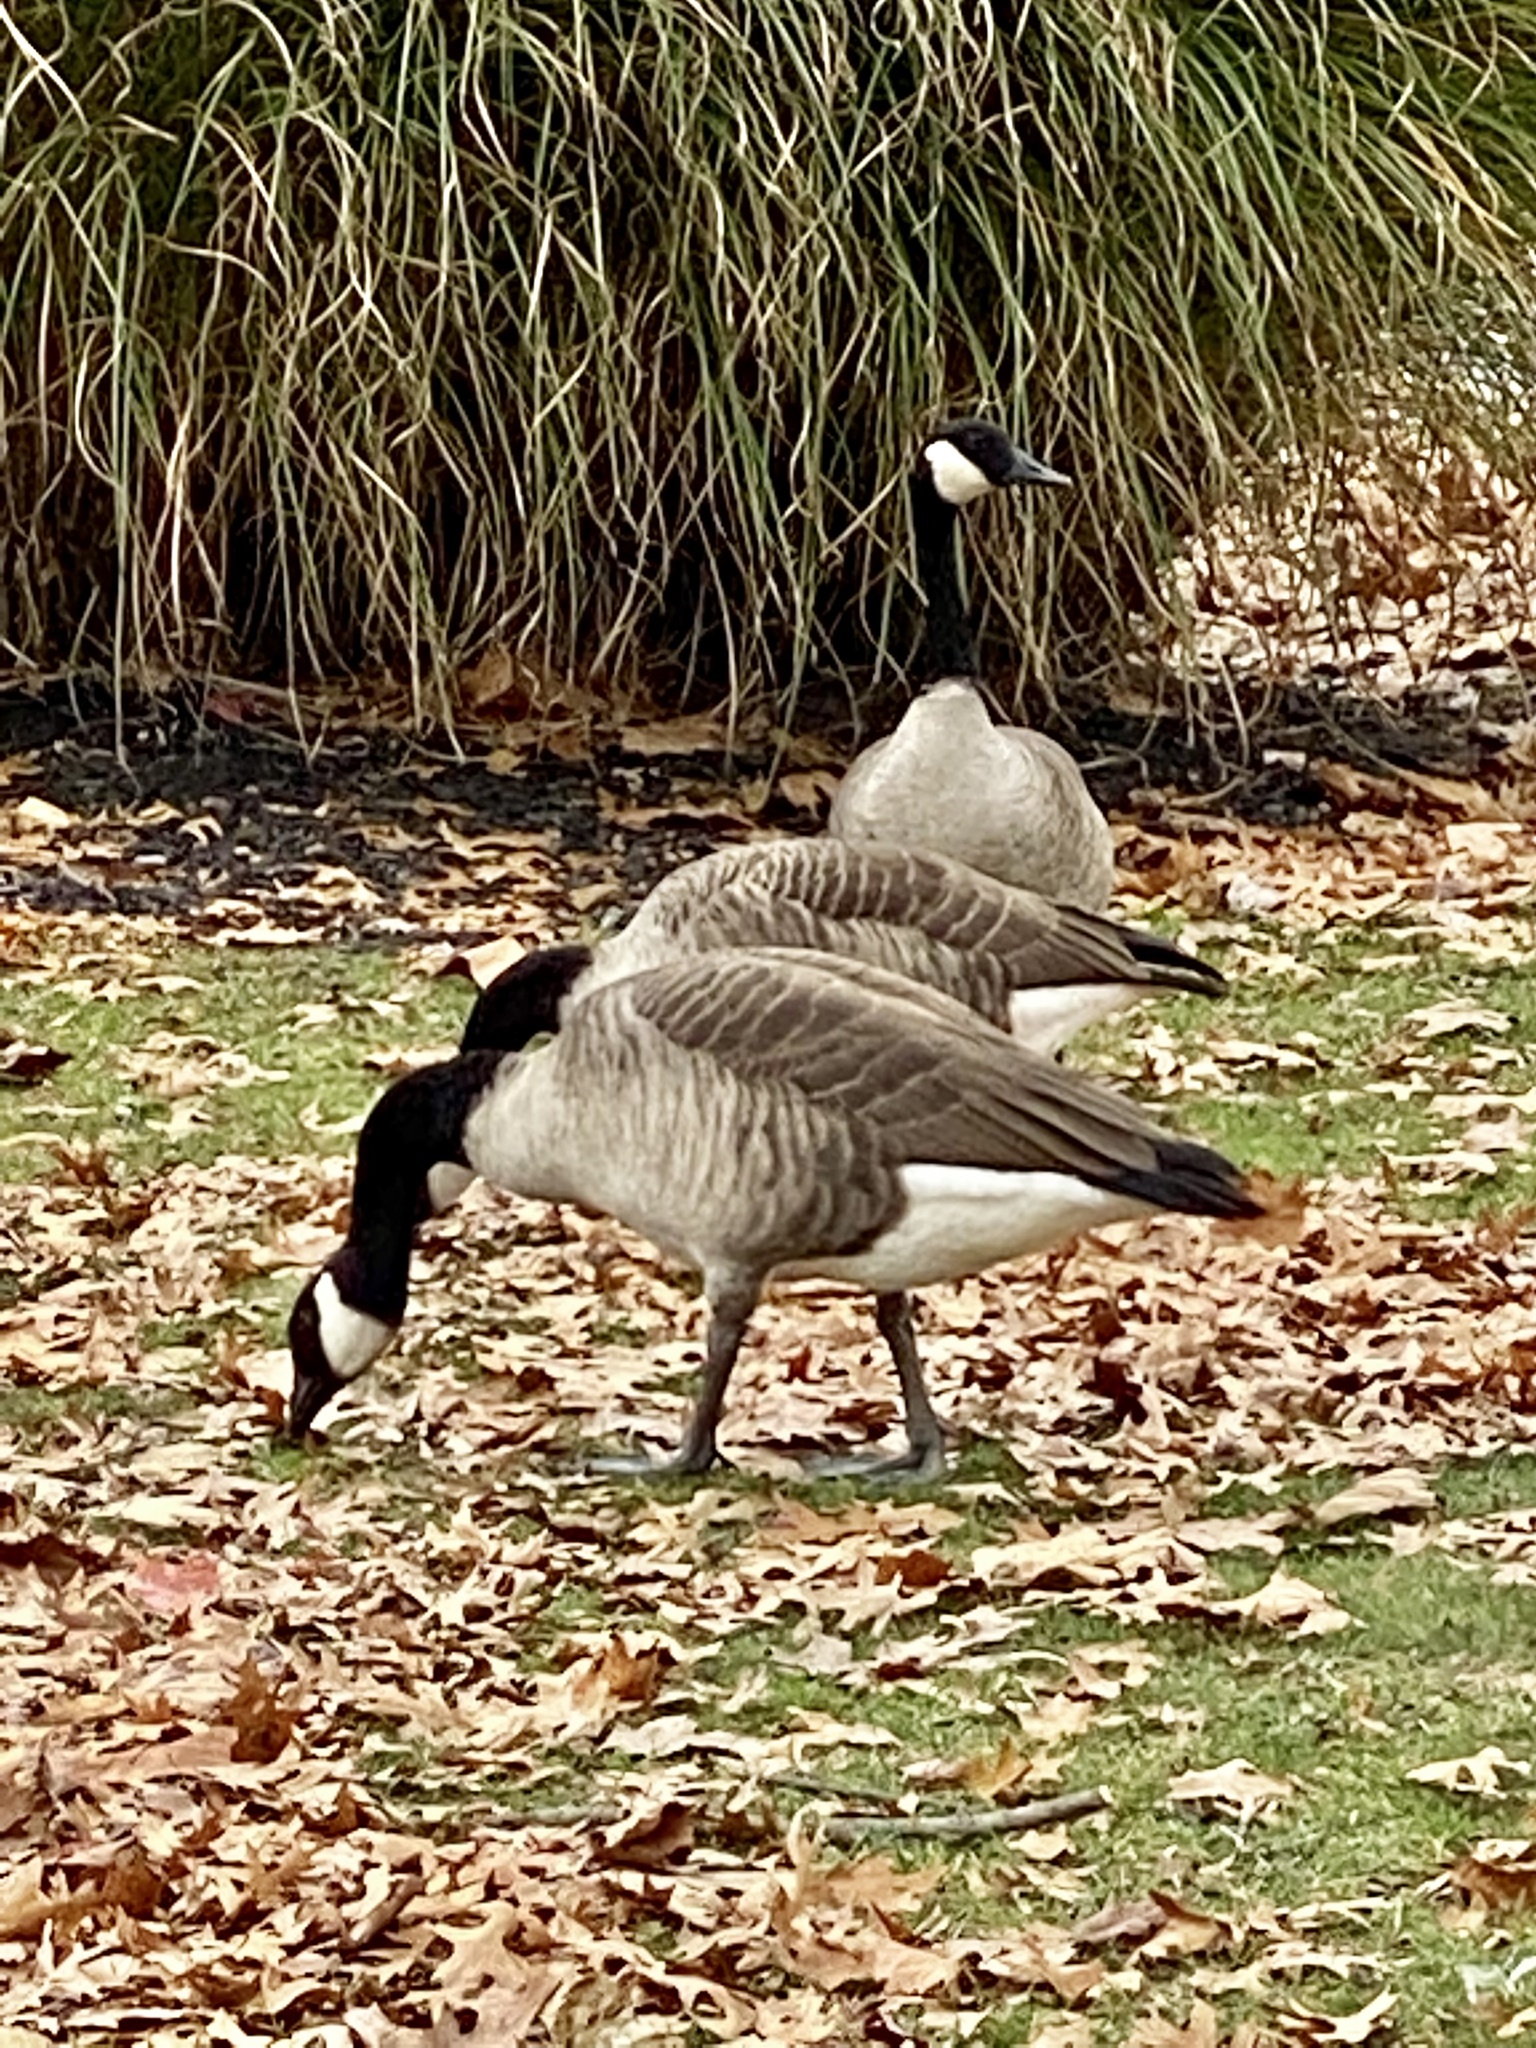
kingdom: Animalia
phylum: Chordata
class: Aves
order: Anseriformes
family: Anatidae
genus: Branta
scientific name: Branta canadensis
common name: Canada goose
